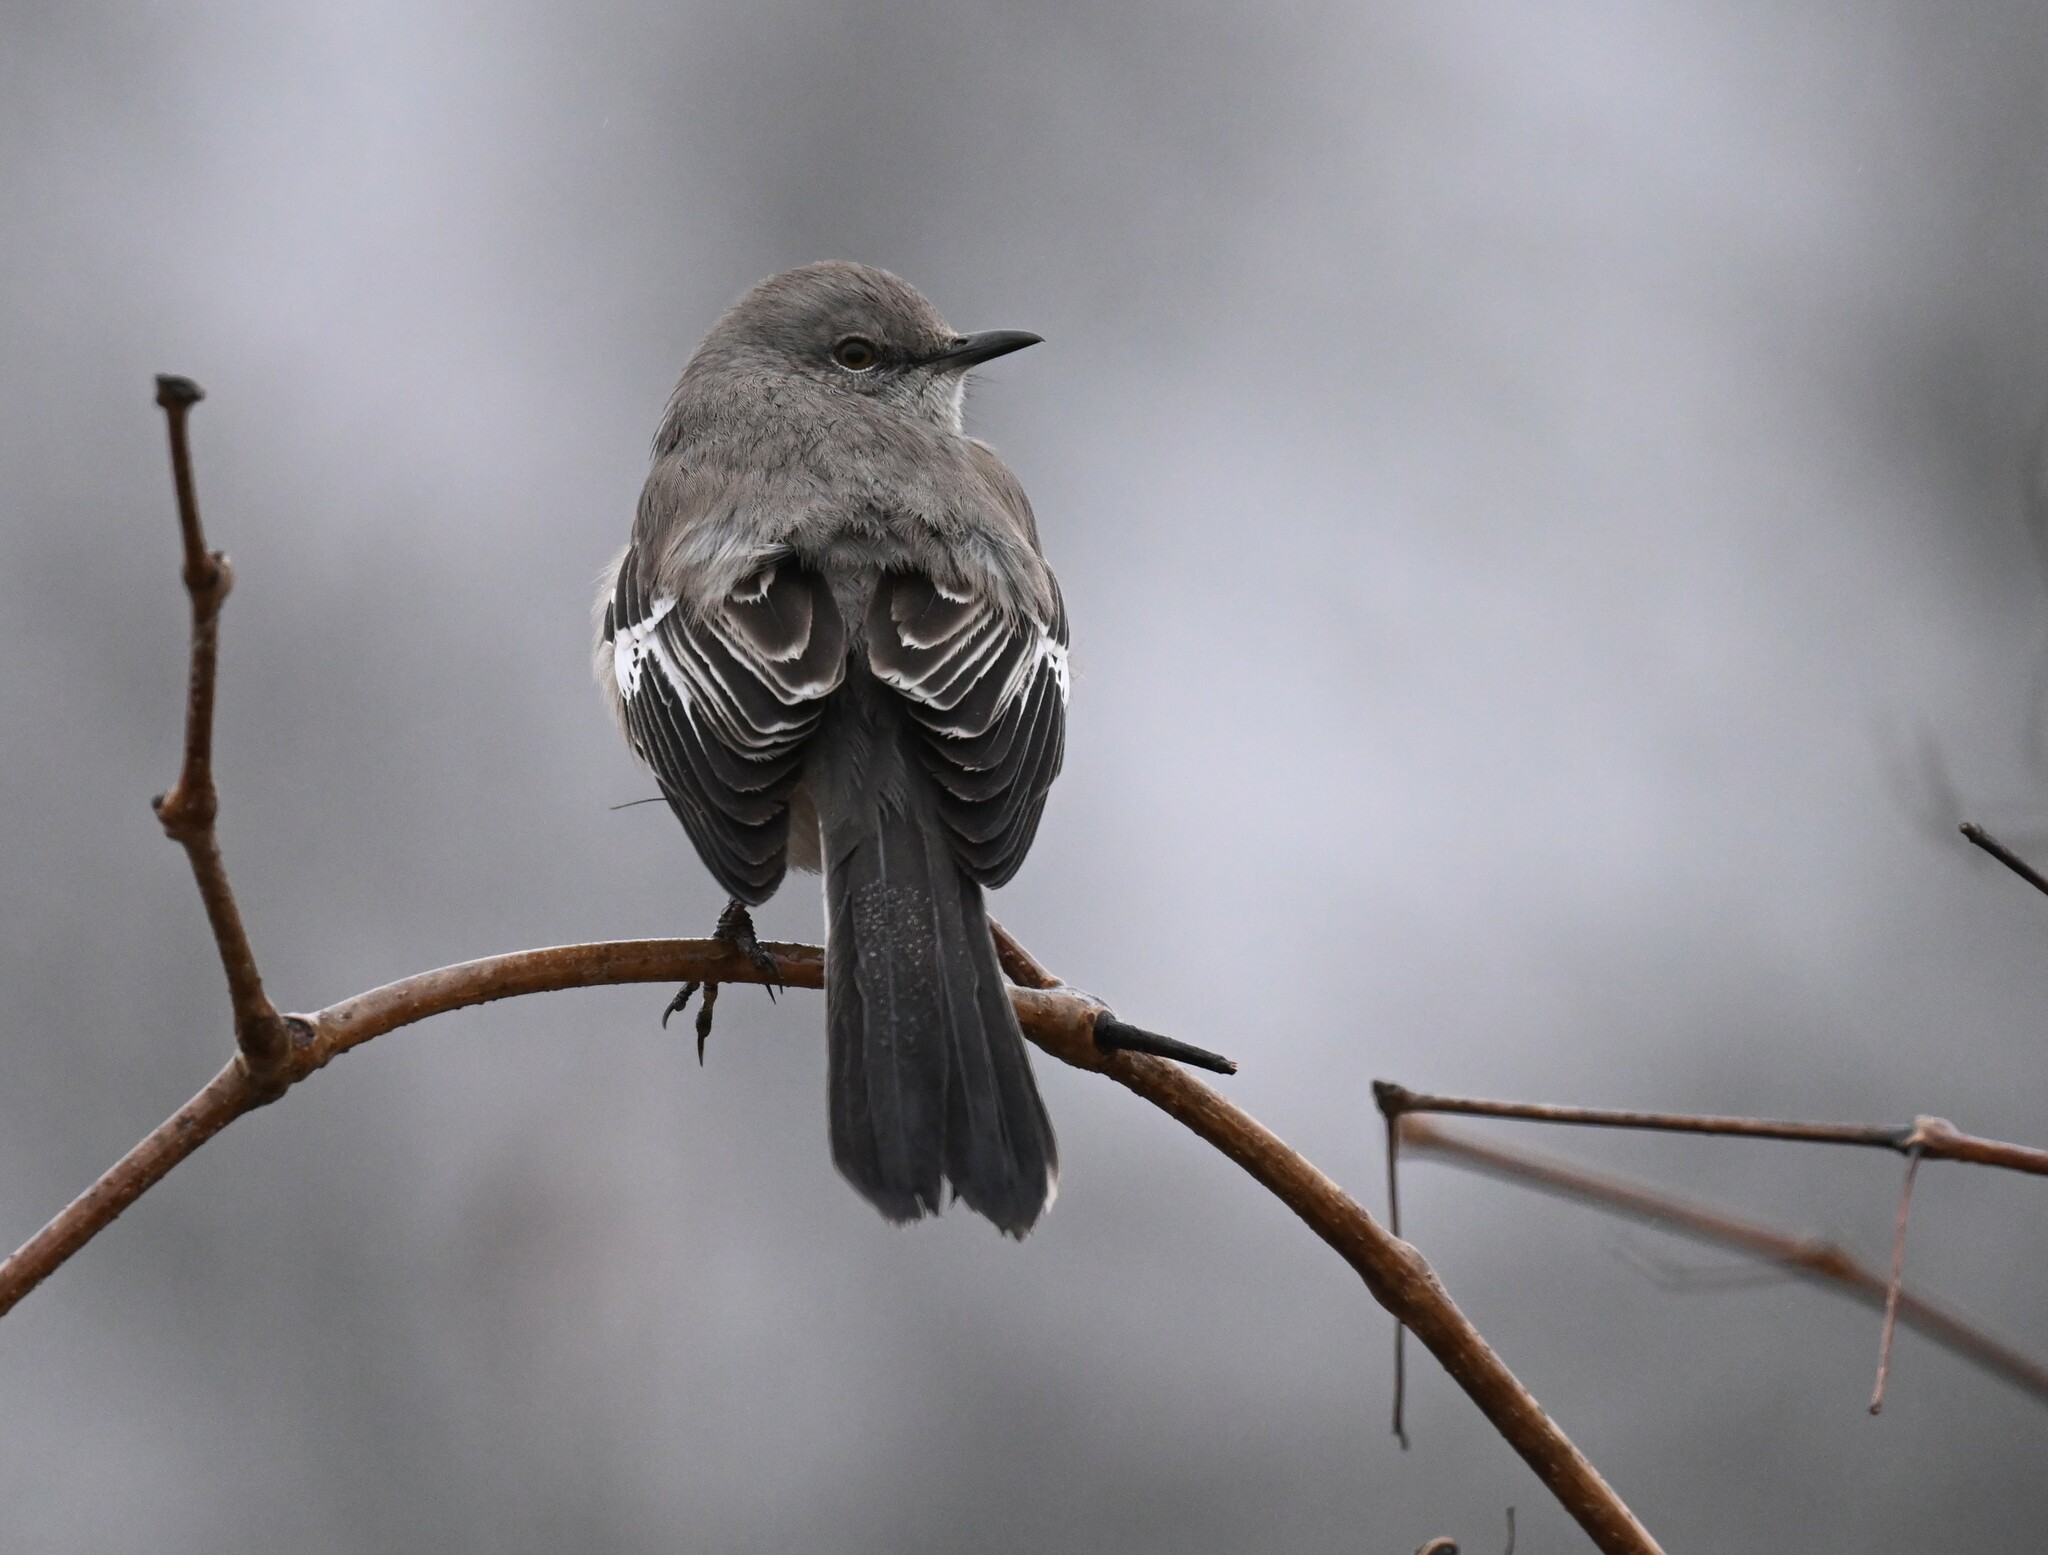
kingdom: Animalia
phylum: Chordata
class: Aves
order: Passeriformes
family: Mimidae
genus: Mimus
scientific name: Mimus polyglottos
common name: Northern mockingbird
